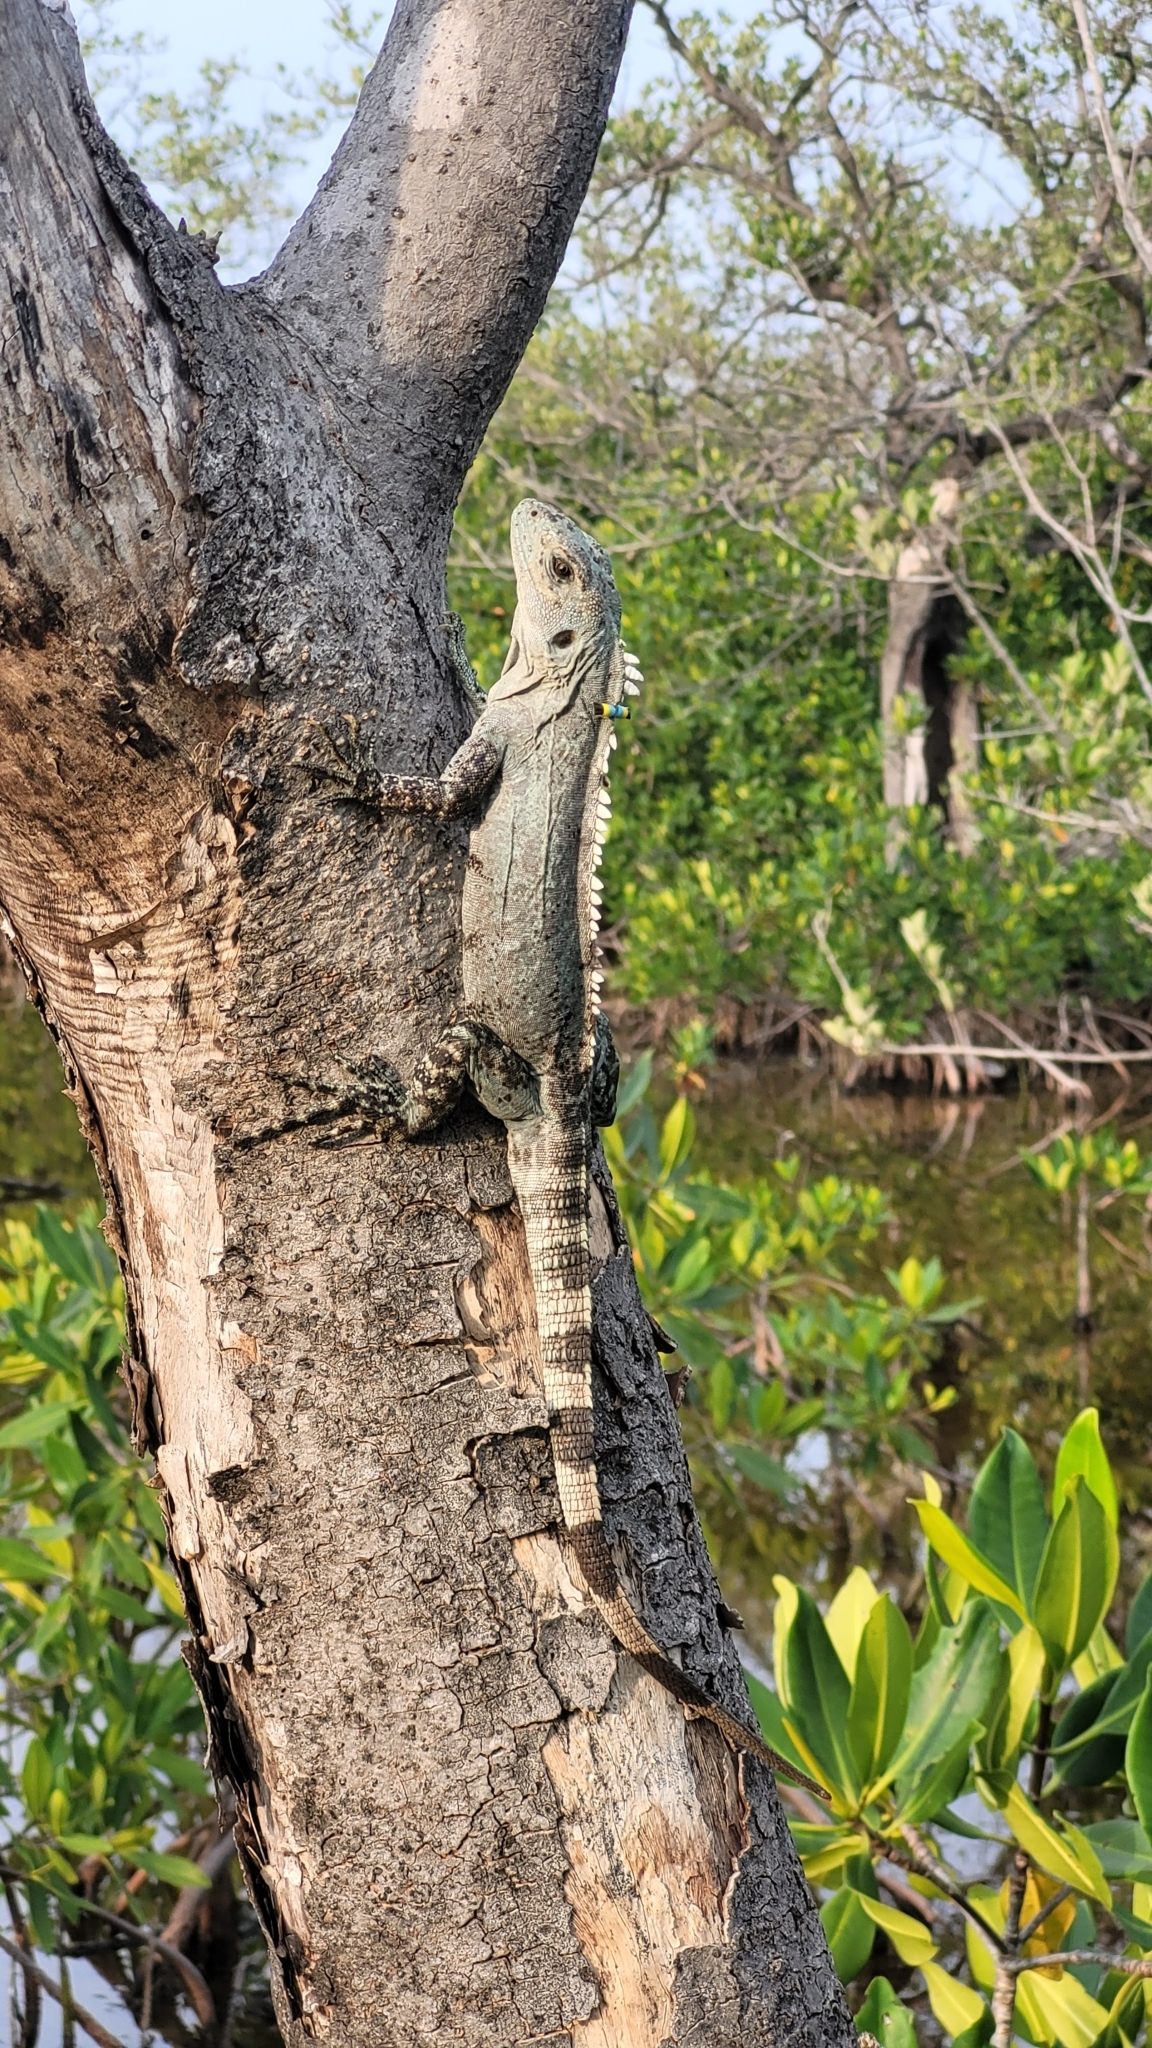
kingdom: Animalia
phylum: Chordata
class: Squamata
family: Iguanidae
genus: Ctenosaura
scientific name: Ctenosaura bakeri
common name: Utila spiny-tailed iguana
